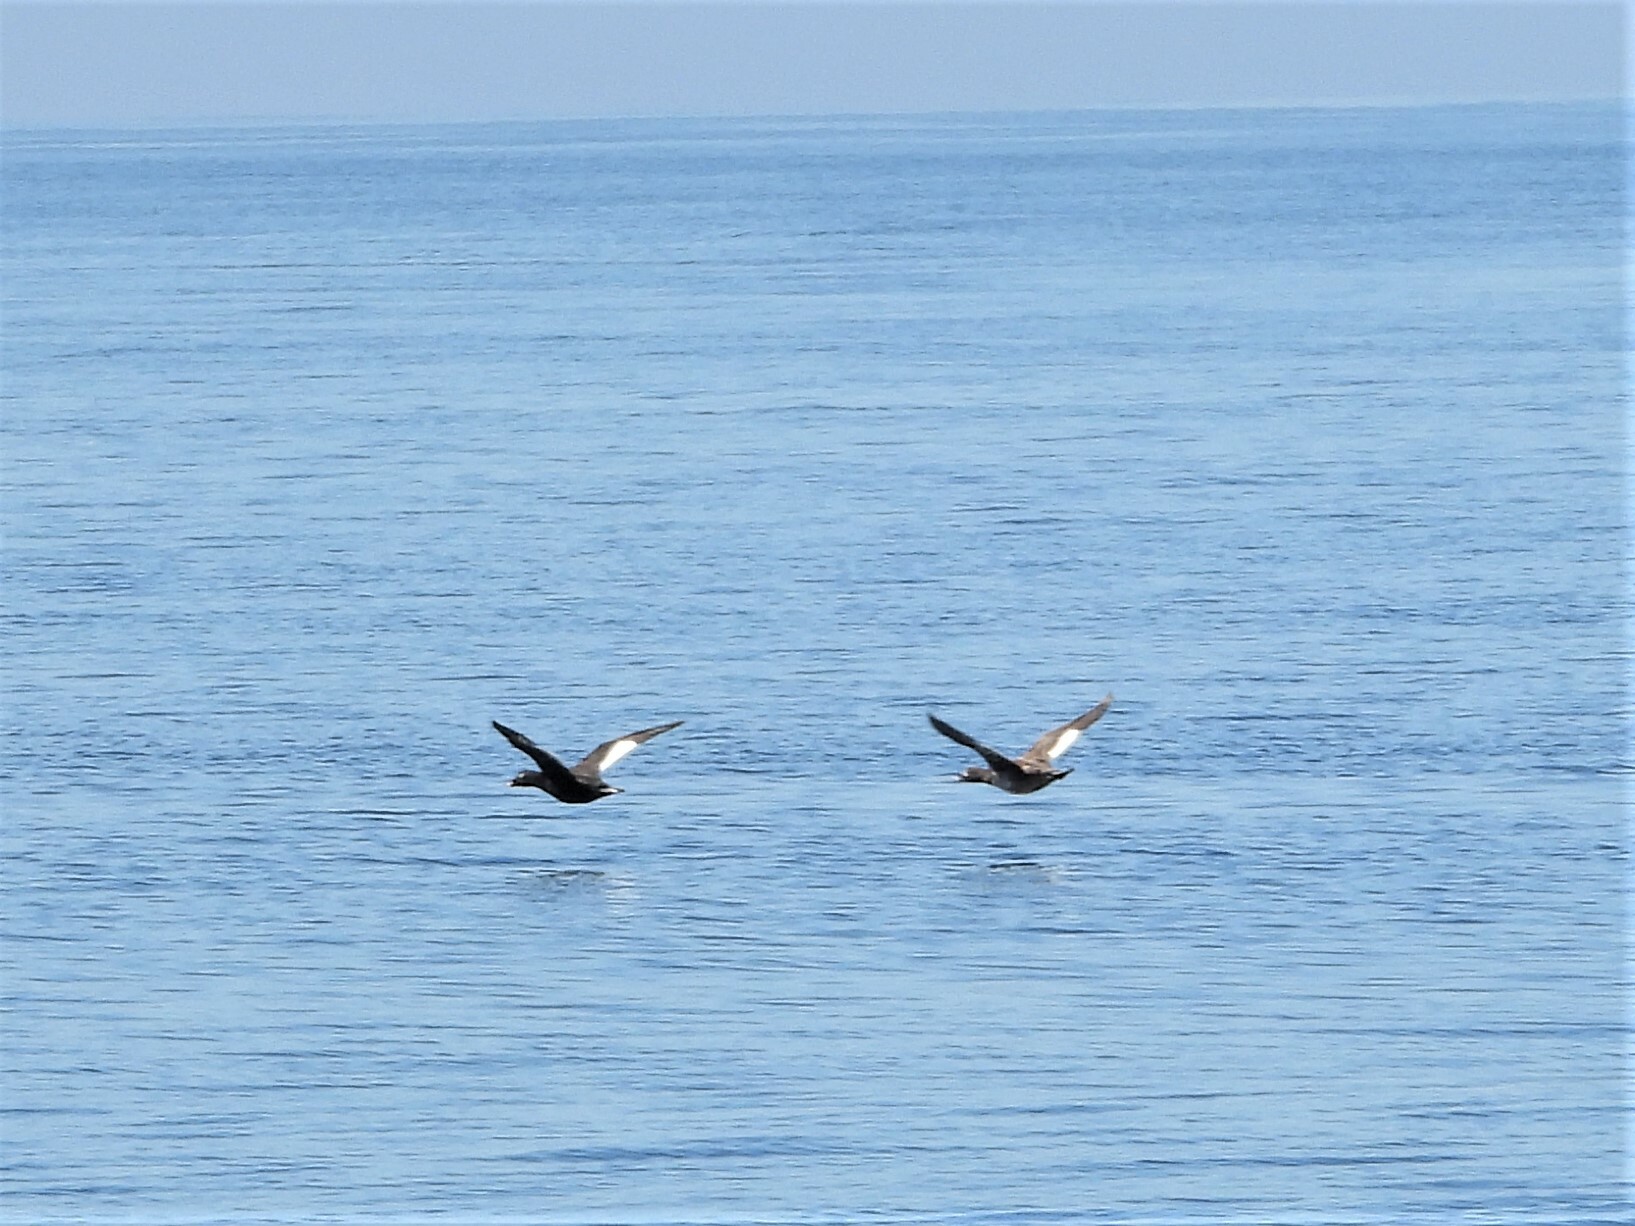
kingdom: Animalia
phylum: Chordata
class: Aves
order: Anseriformes
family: Anatidae
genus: Melanitta
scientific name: Melanitta deglandi
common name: White-winged scoter
